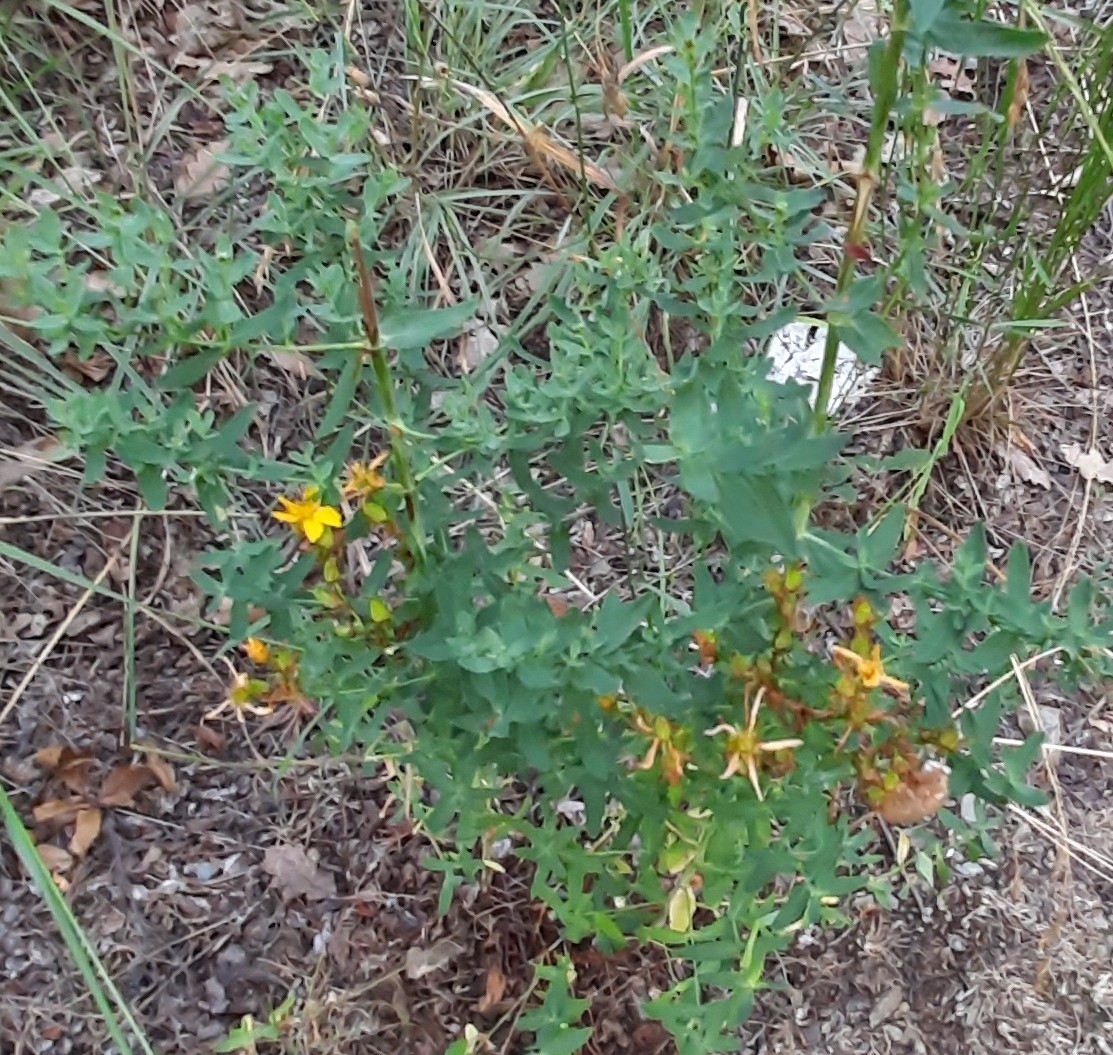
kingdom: Plantae
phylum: Tracheophyta
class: Magnoliopsida
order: Malpighiales
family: Hypericaceae
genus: Hypericum
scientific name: Hypericum perforatum
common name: Common st. johnswort
